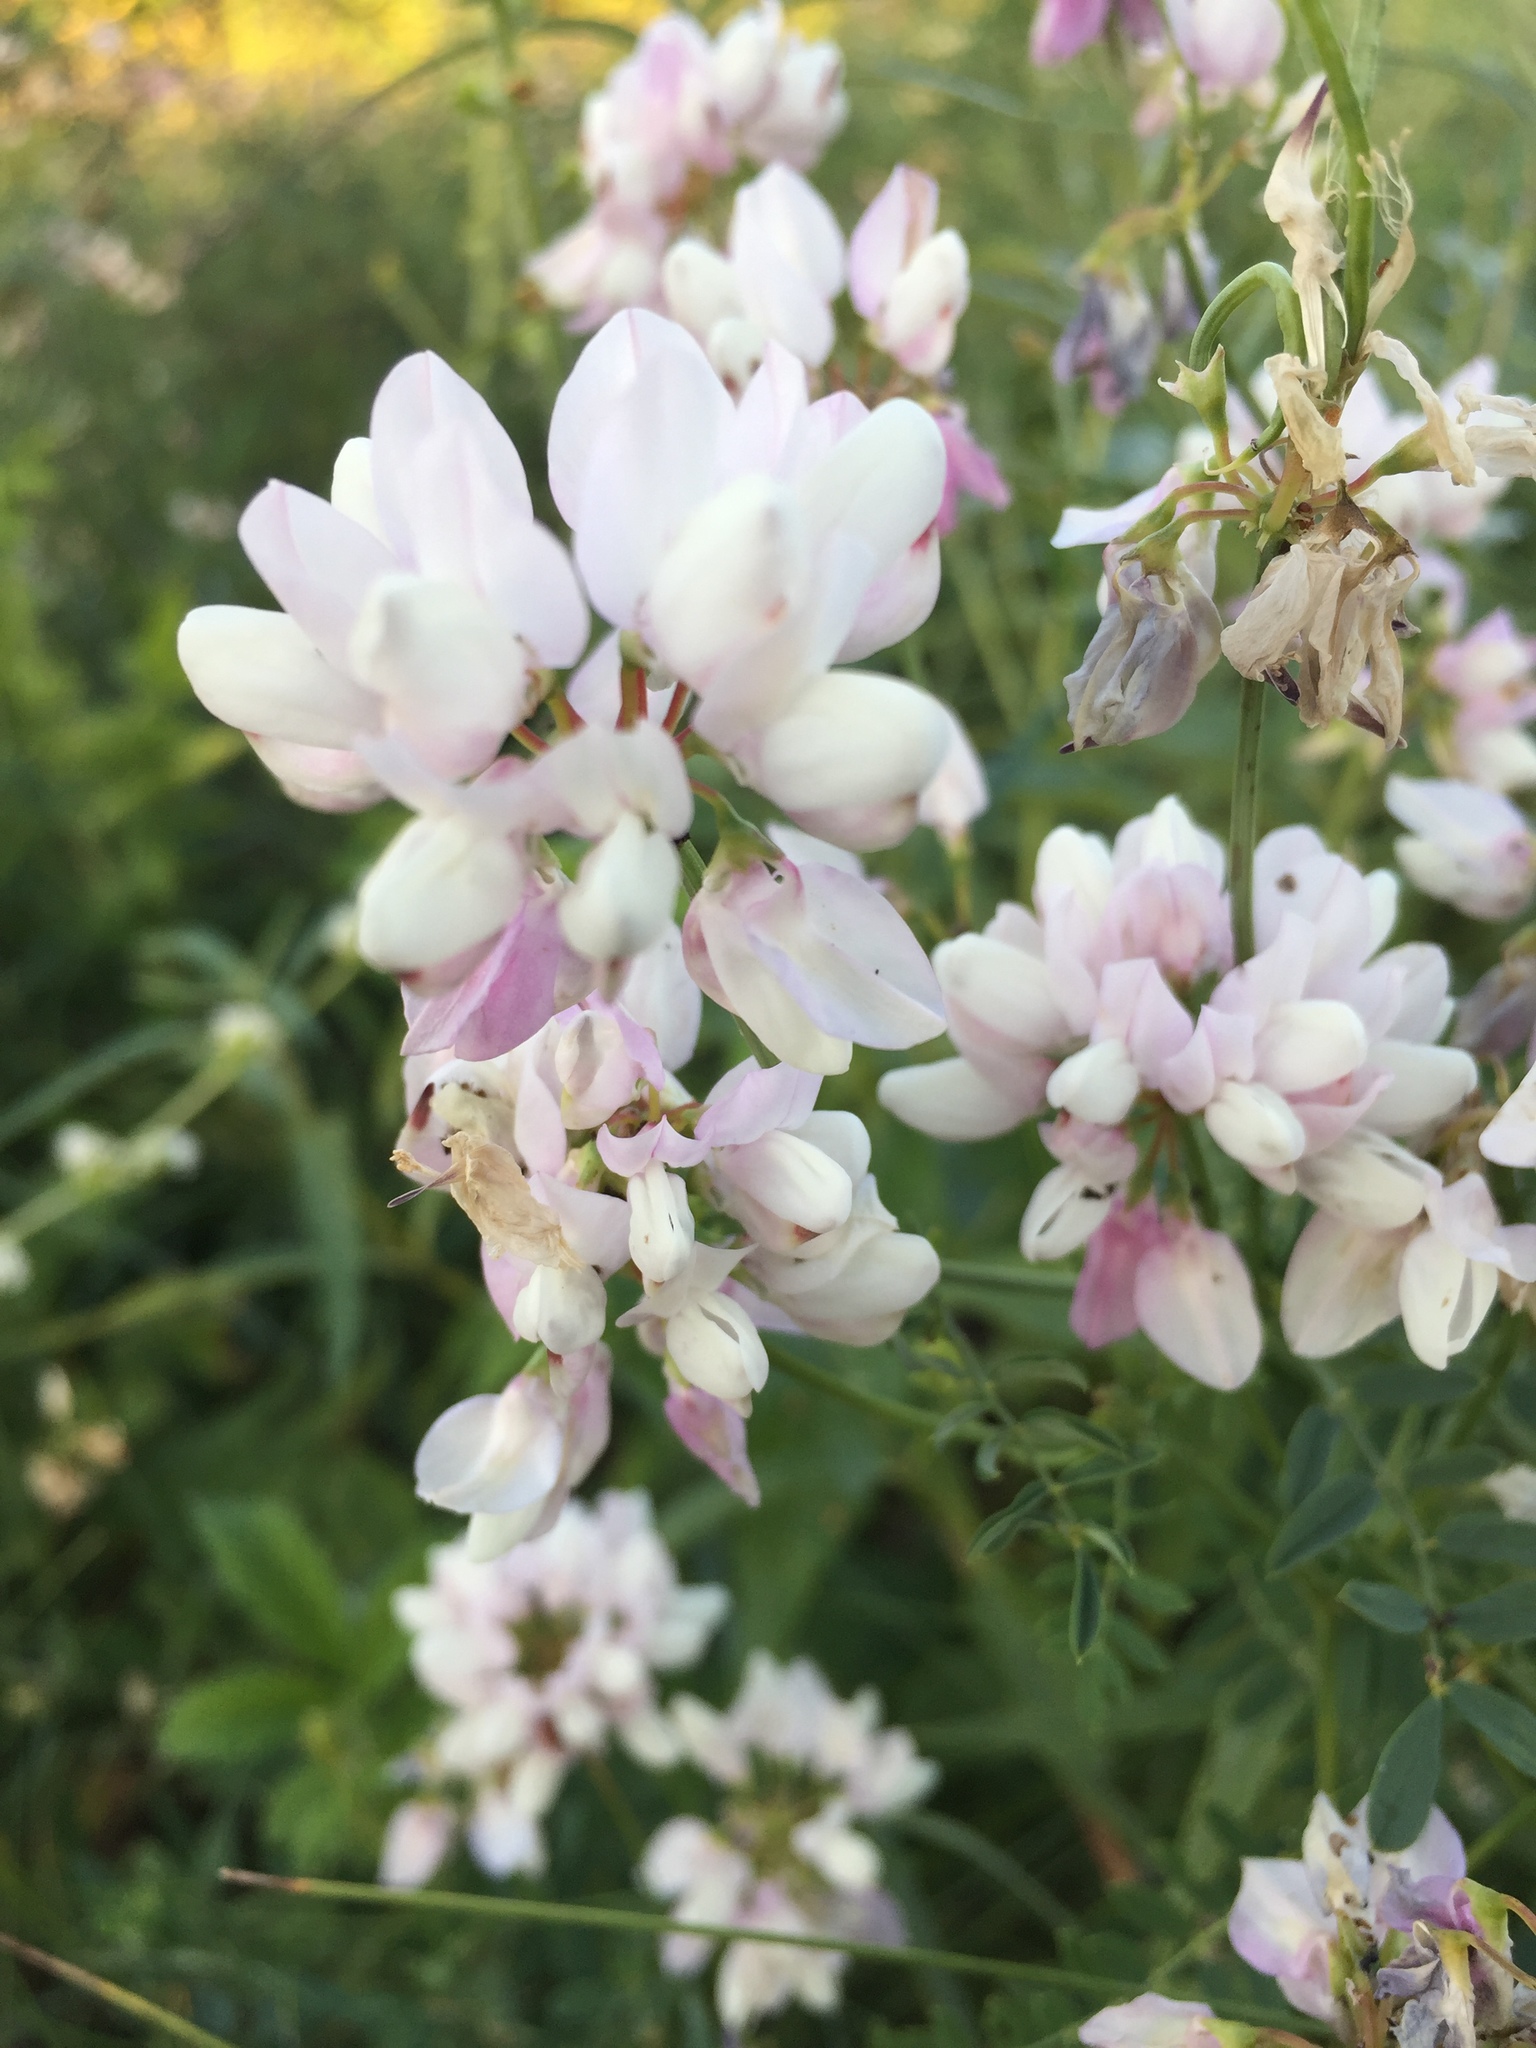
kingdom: Plantae
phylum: Tracheophyta
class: Magnoliopsida
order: Fabales
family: Fabaceae
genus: Coronilla
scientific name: Coronilla varia
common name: Crownvetch
